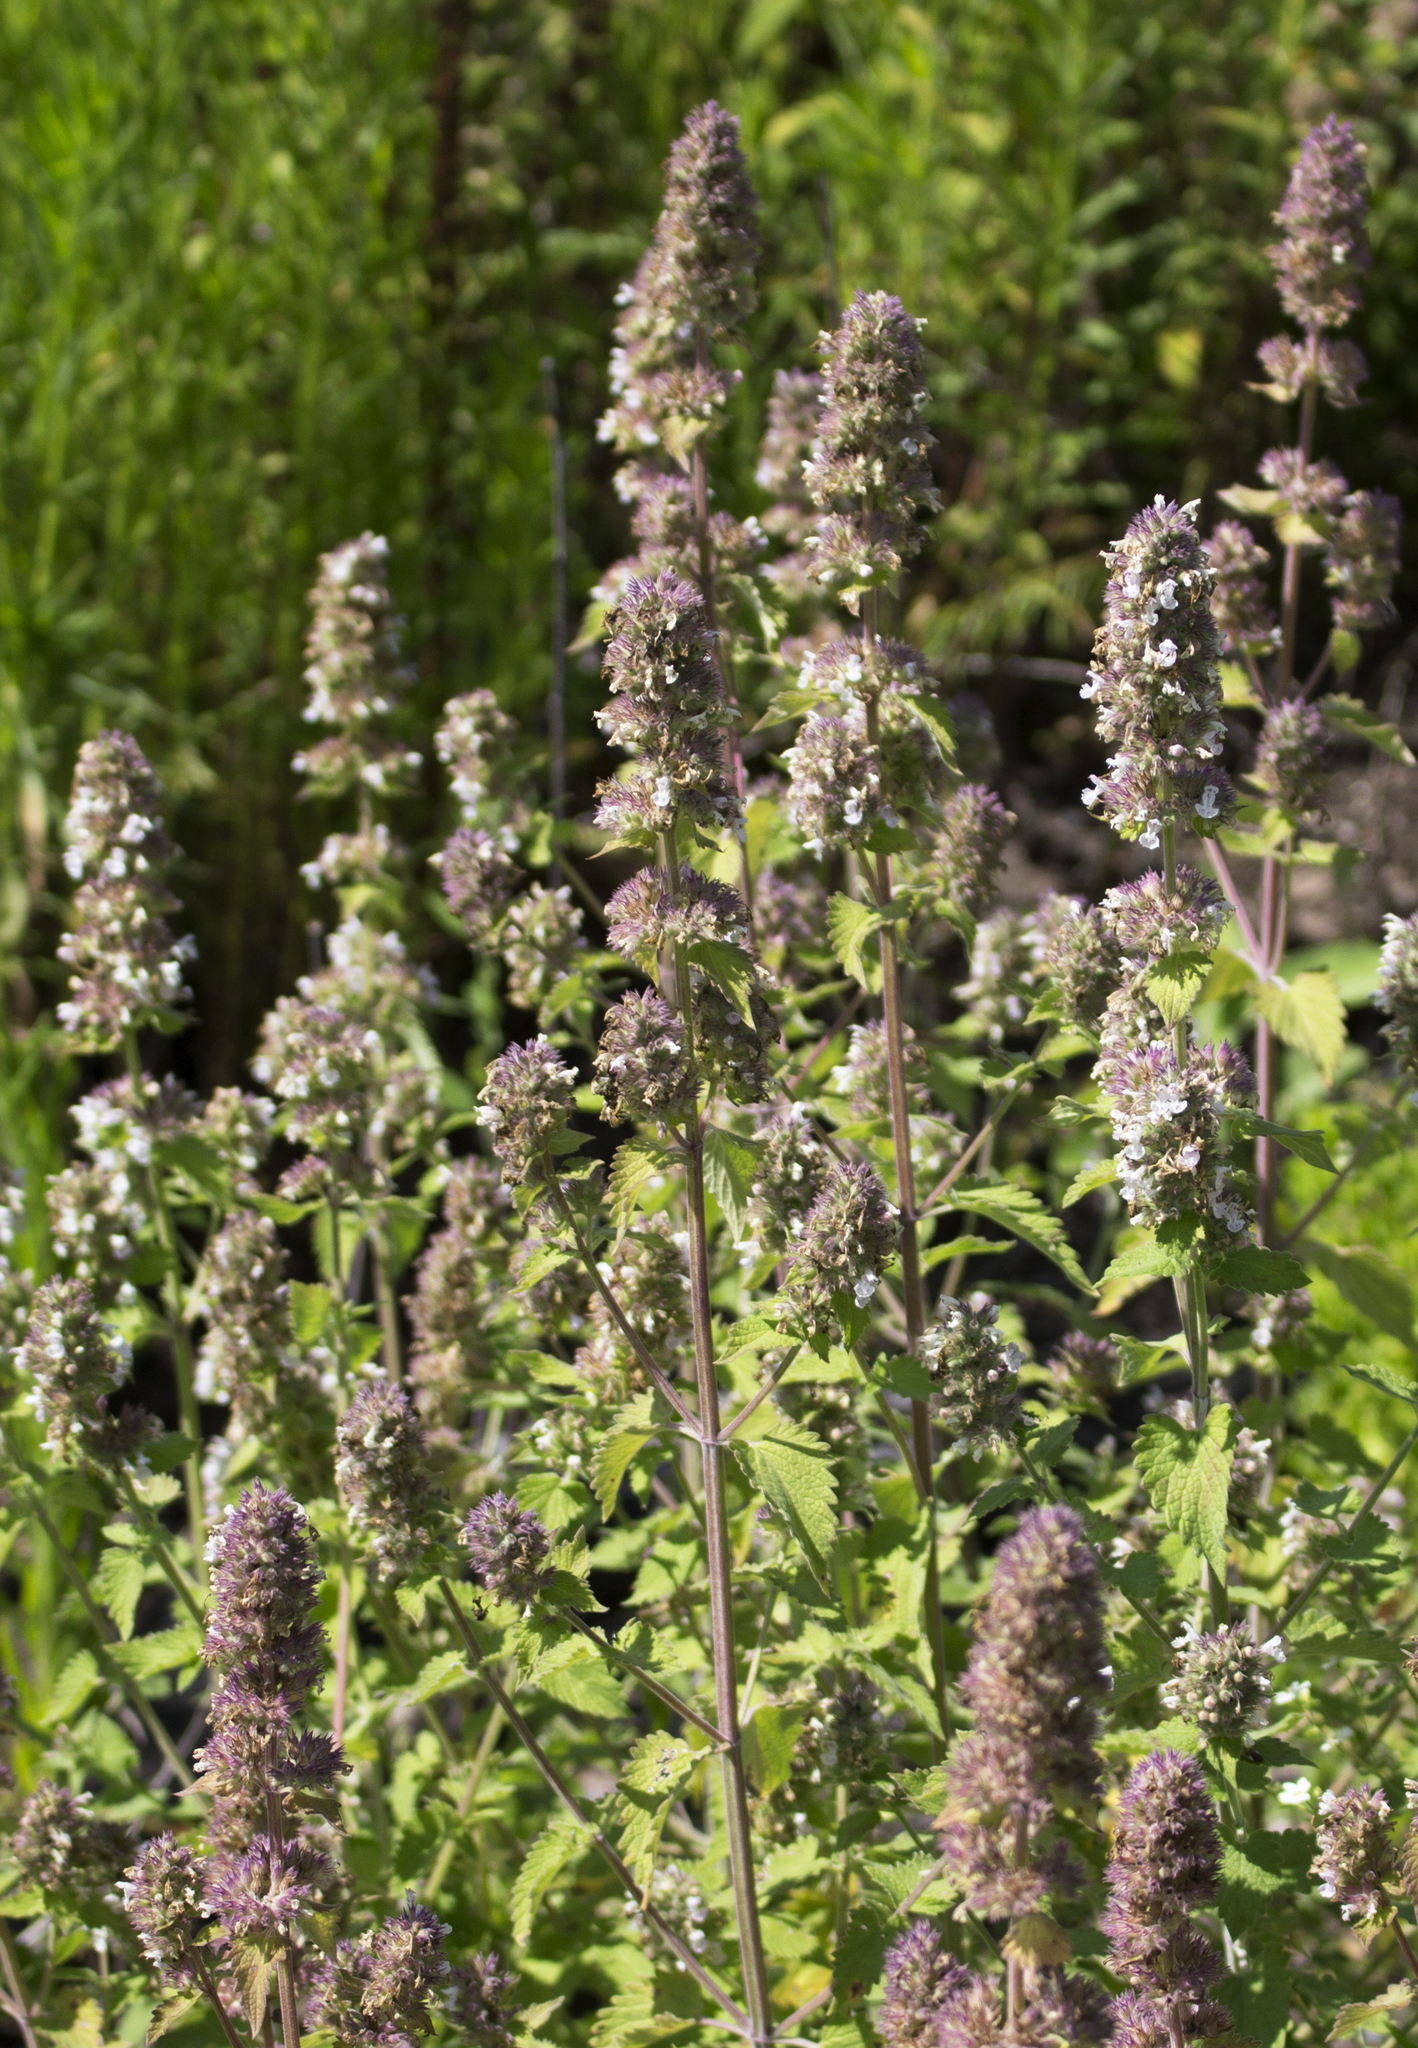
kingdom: Plantae
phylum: Tracheophyta
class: Magnoliopsida
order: Lamiales
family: Lamiaceae
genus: Nepeta
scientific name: Nepeta cataria
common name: Catnip
